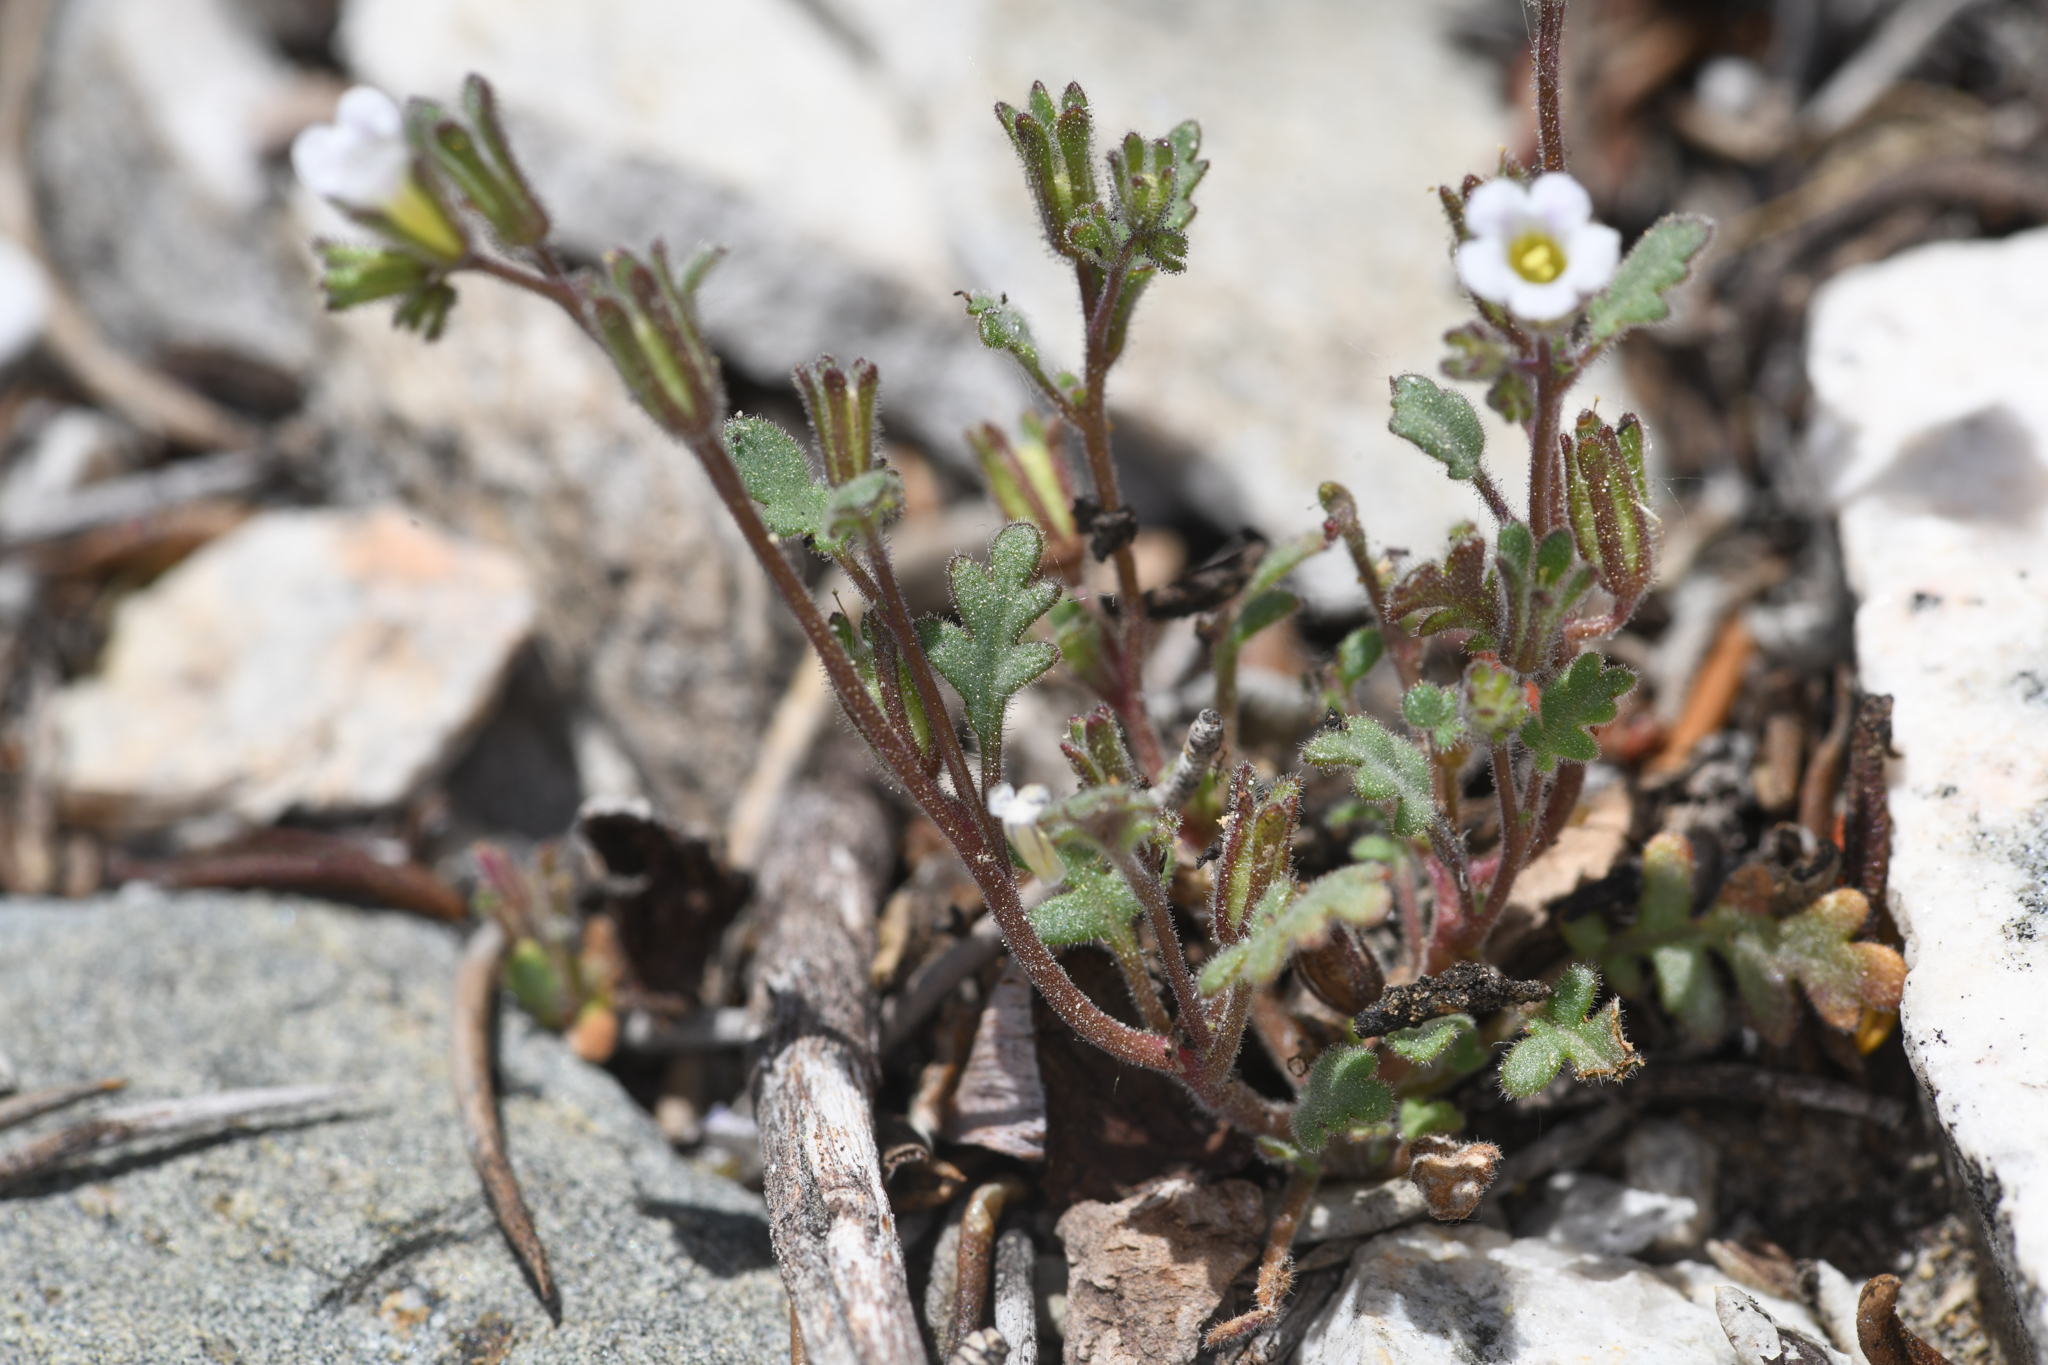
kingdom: Plantae
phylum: Tracheophyta
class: Magnoliopsida
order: Boraginales
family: Hydrophyllaceae
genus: Phacelia
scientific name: Phacelia affinis
